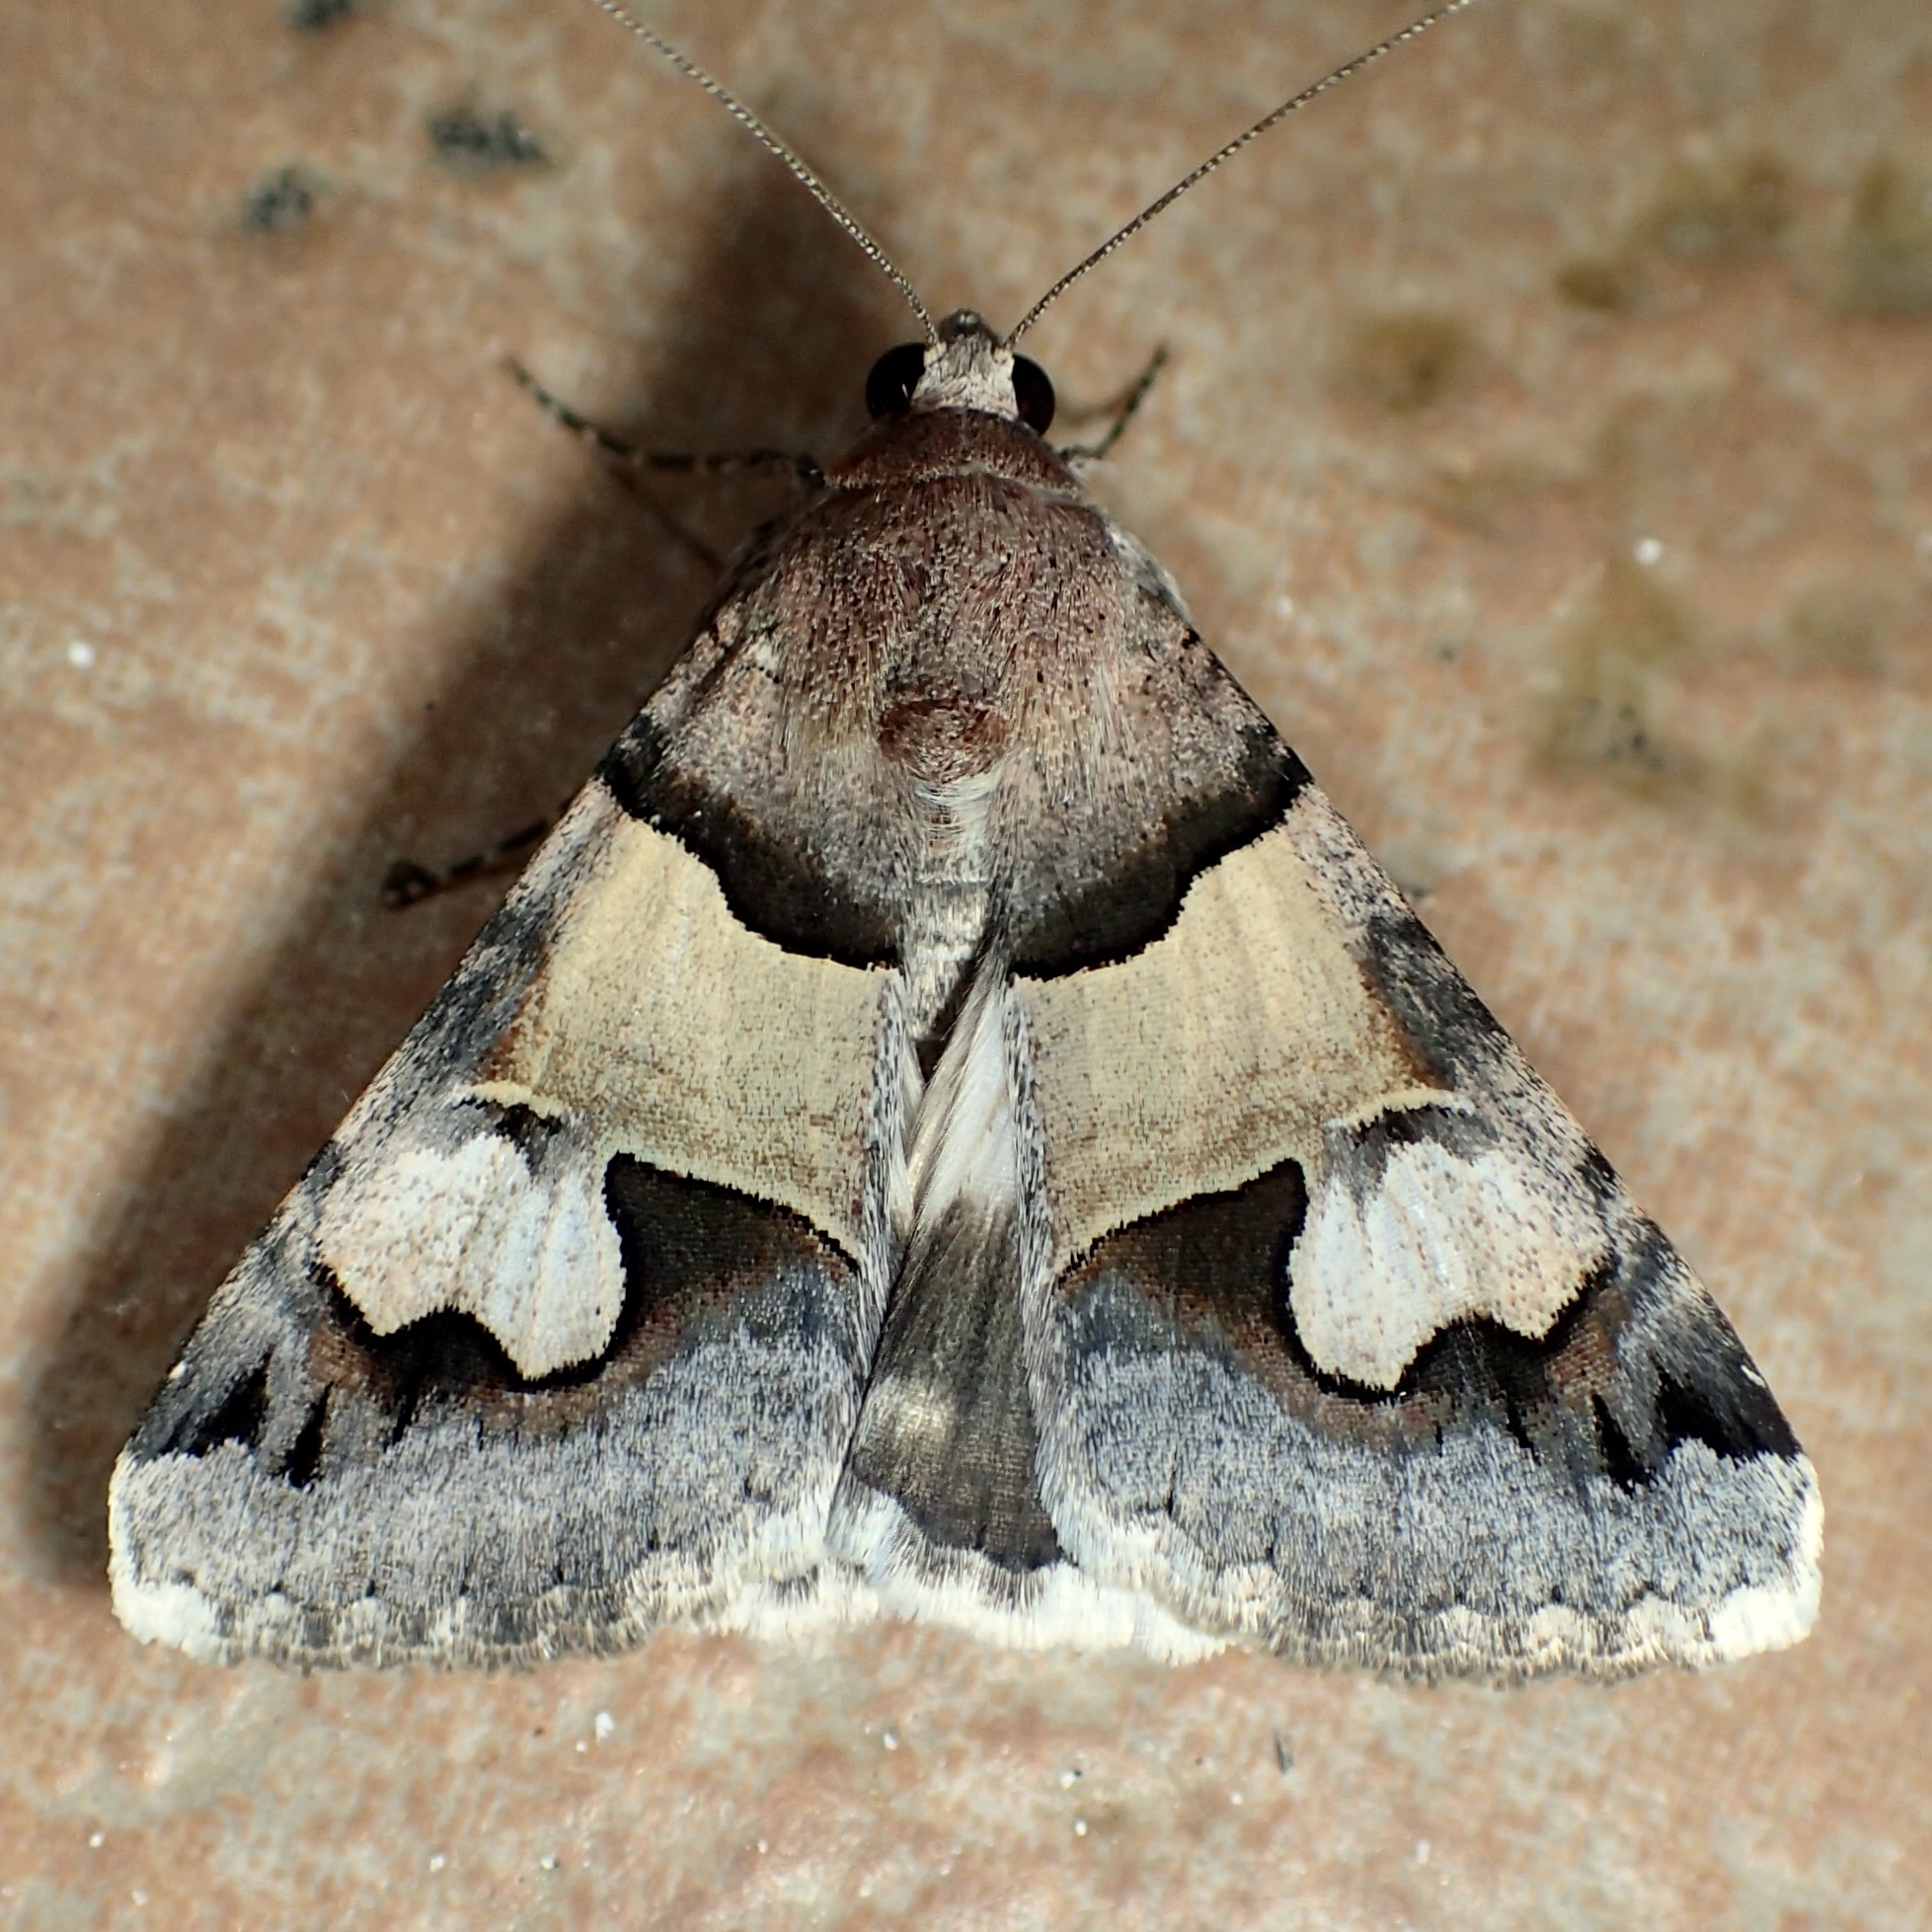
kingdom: Animalia
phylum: Arthropoda
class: Insecta
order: Lepidoptera
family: Erebidae
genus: Drasteria
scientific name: Drasteria pallescens
